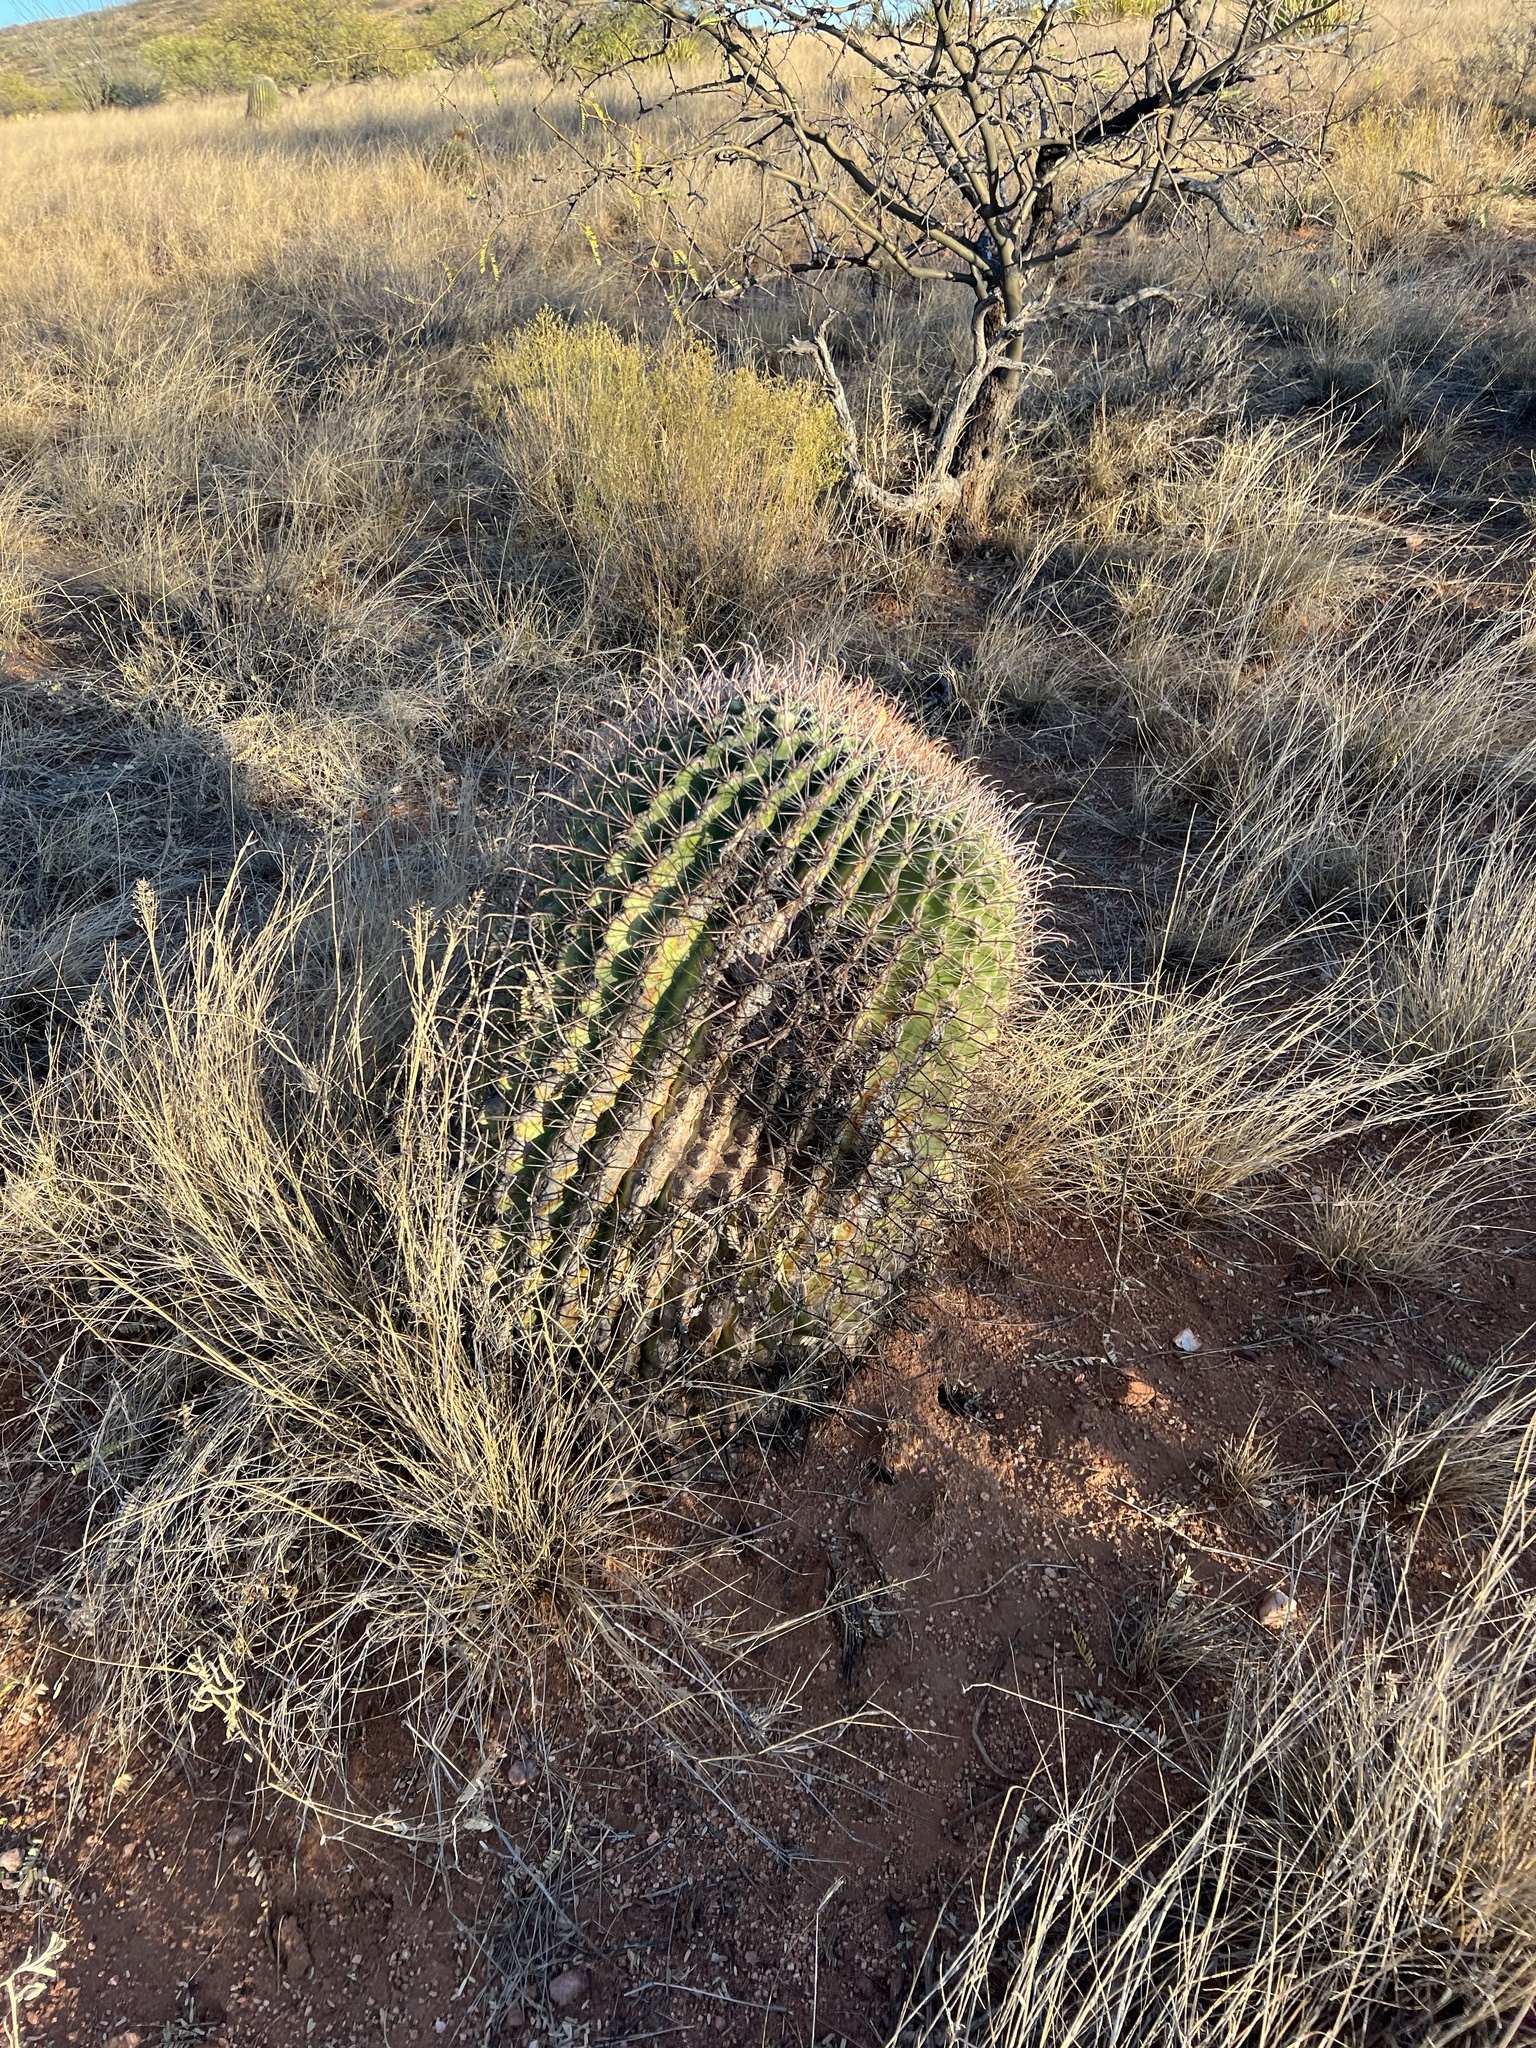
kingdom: Plantae
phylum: Tracheophyta
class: Magnoliopsida
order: Caryophyllales
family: Cactaceae
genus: Ferocactus
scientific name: Ferocactus wislizeni
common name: Candy barrel cactus
